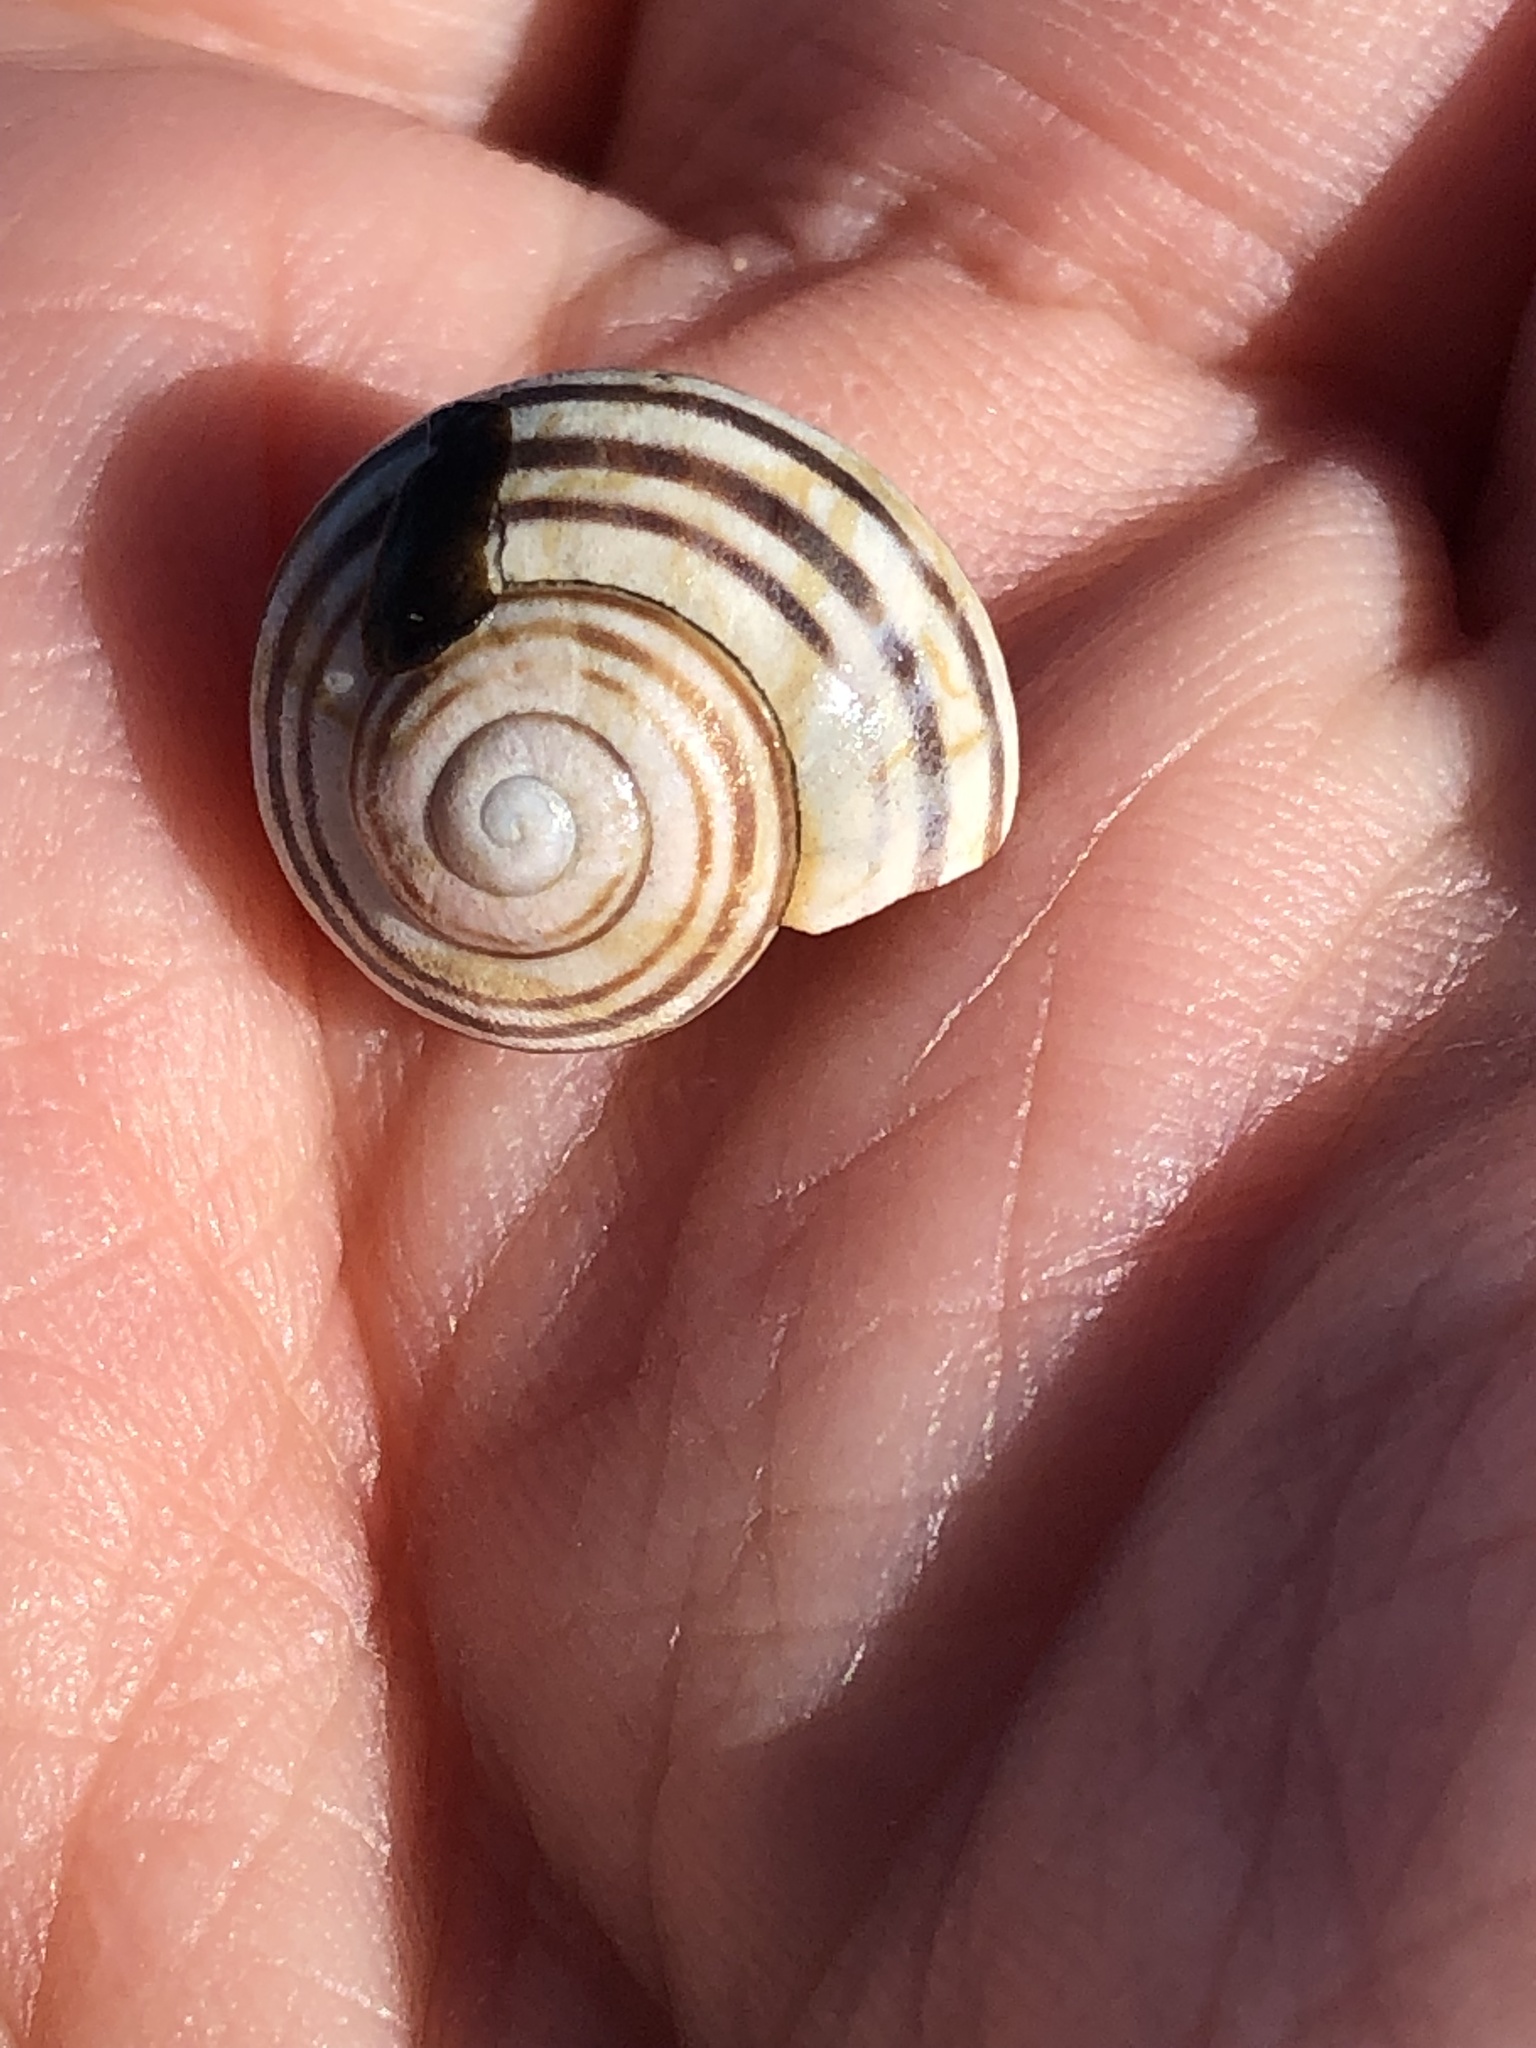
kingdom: Animalia
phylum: Mollusca
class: Gastropoda
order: Stylommatophora
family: Helicidae
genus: Cepaea
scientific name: Cepaea nemoralis
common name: Grovesnail
